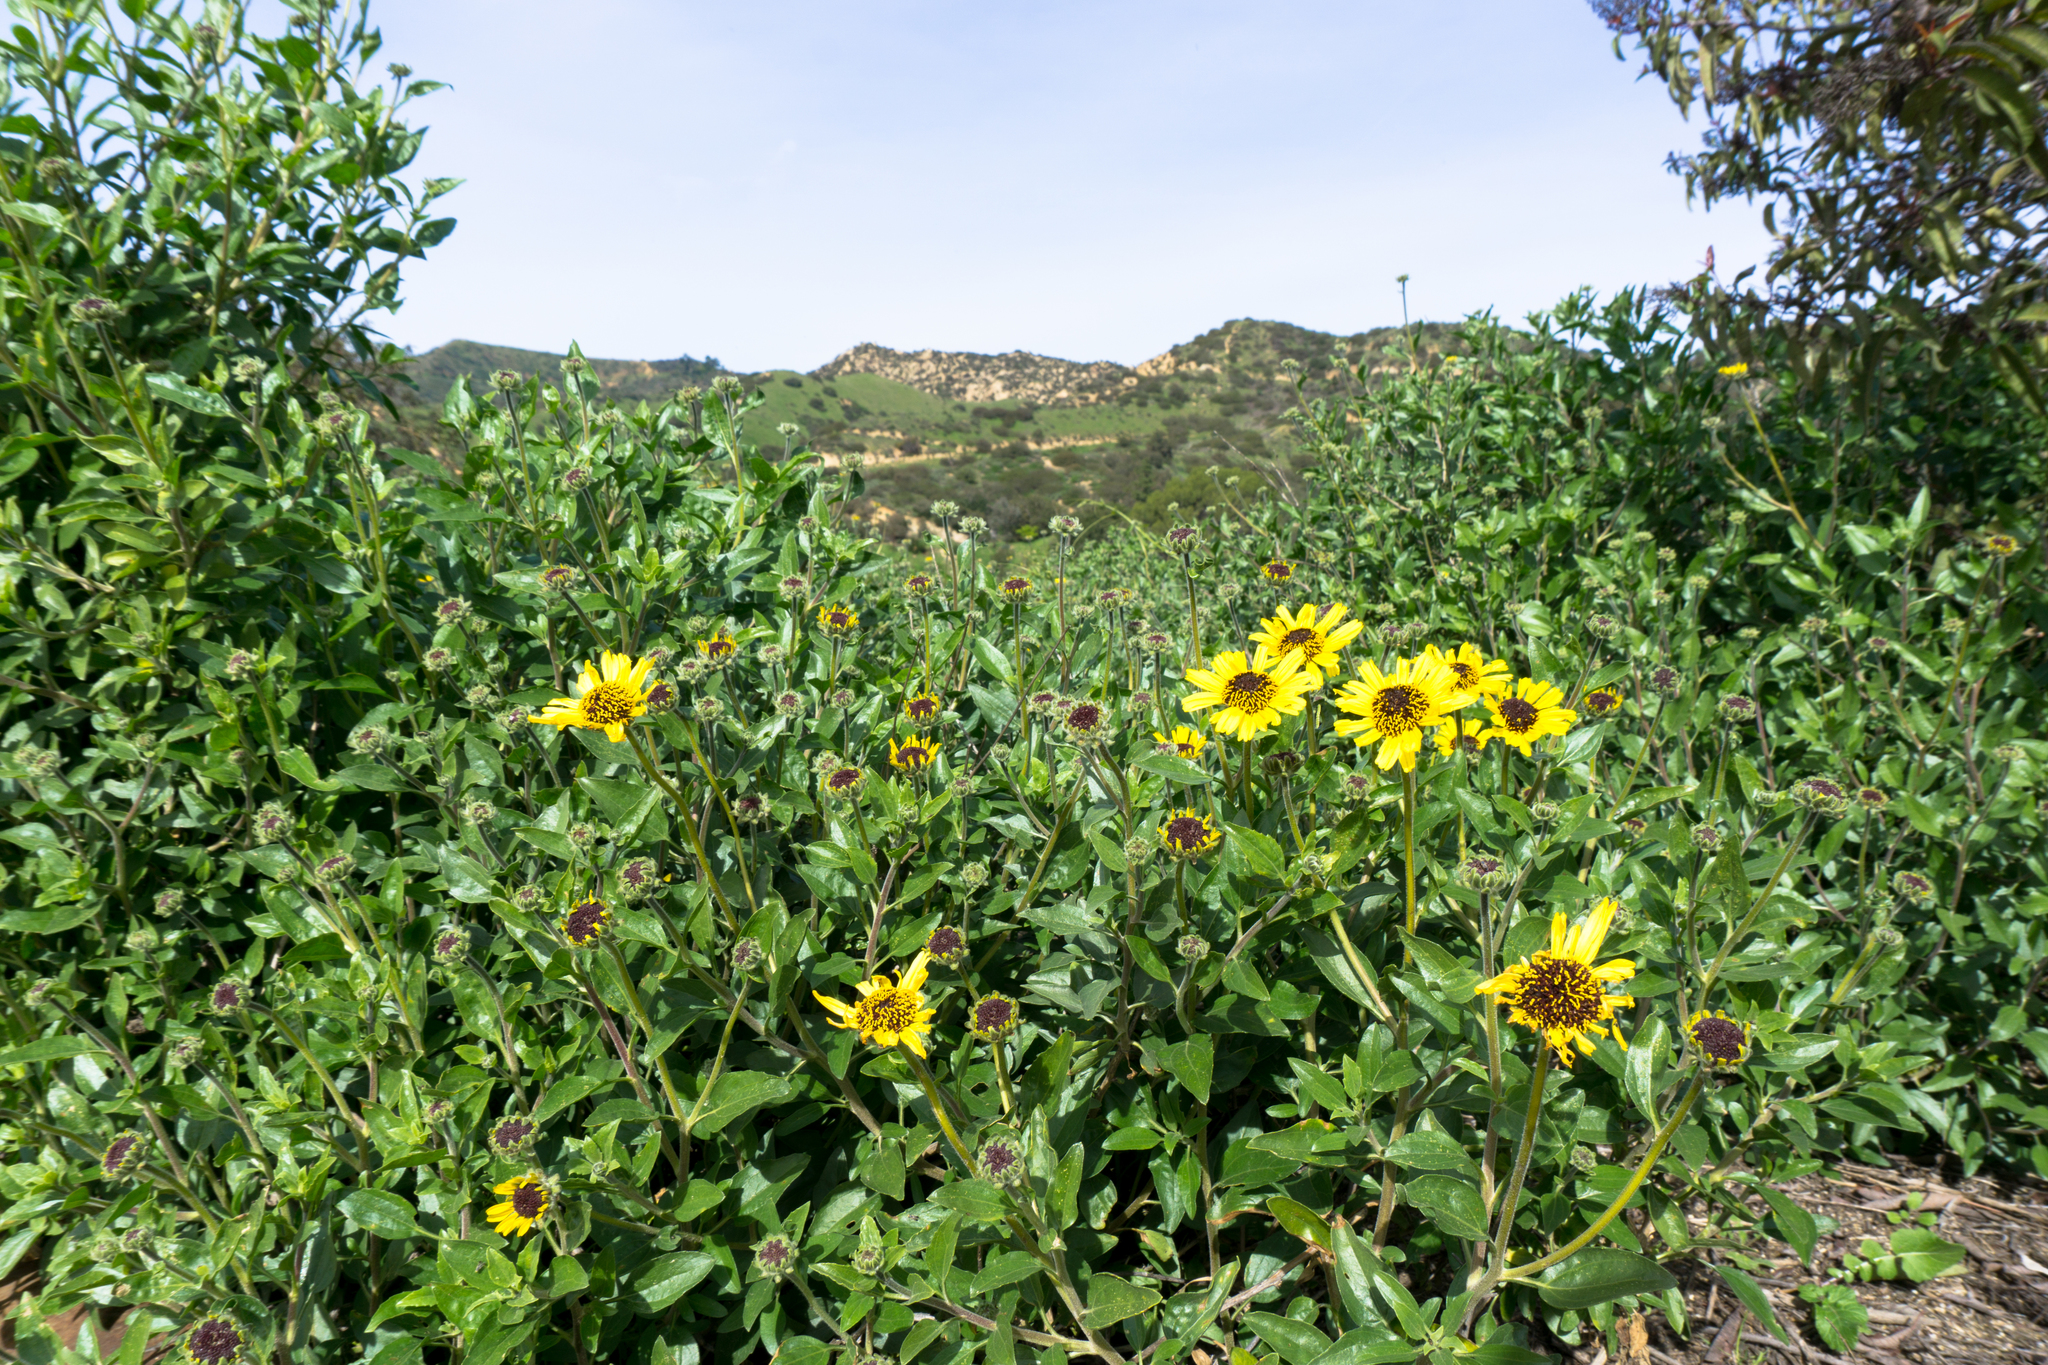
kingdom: Plantae
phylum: Tracheophyta
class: Magnoliopsida
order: Asterales
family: Asteraceae
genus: Encelia
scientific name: Encelia californica
